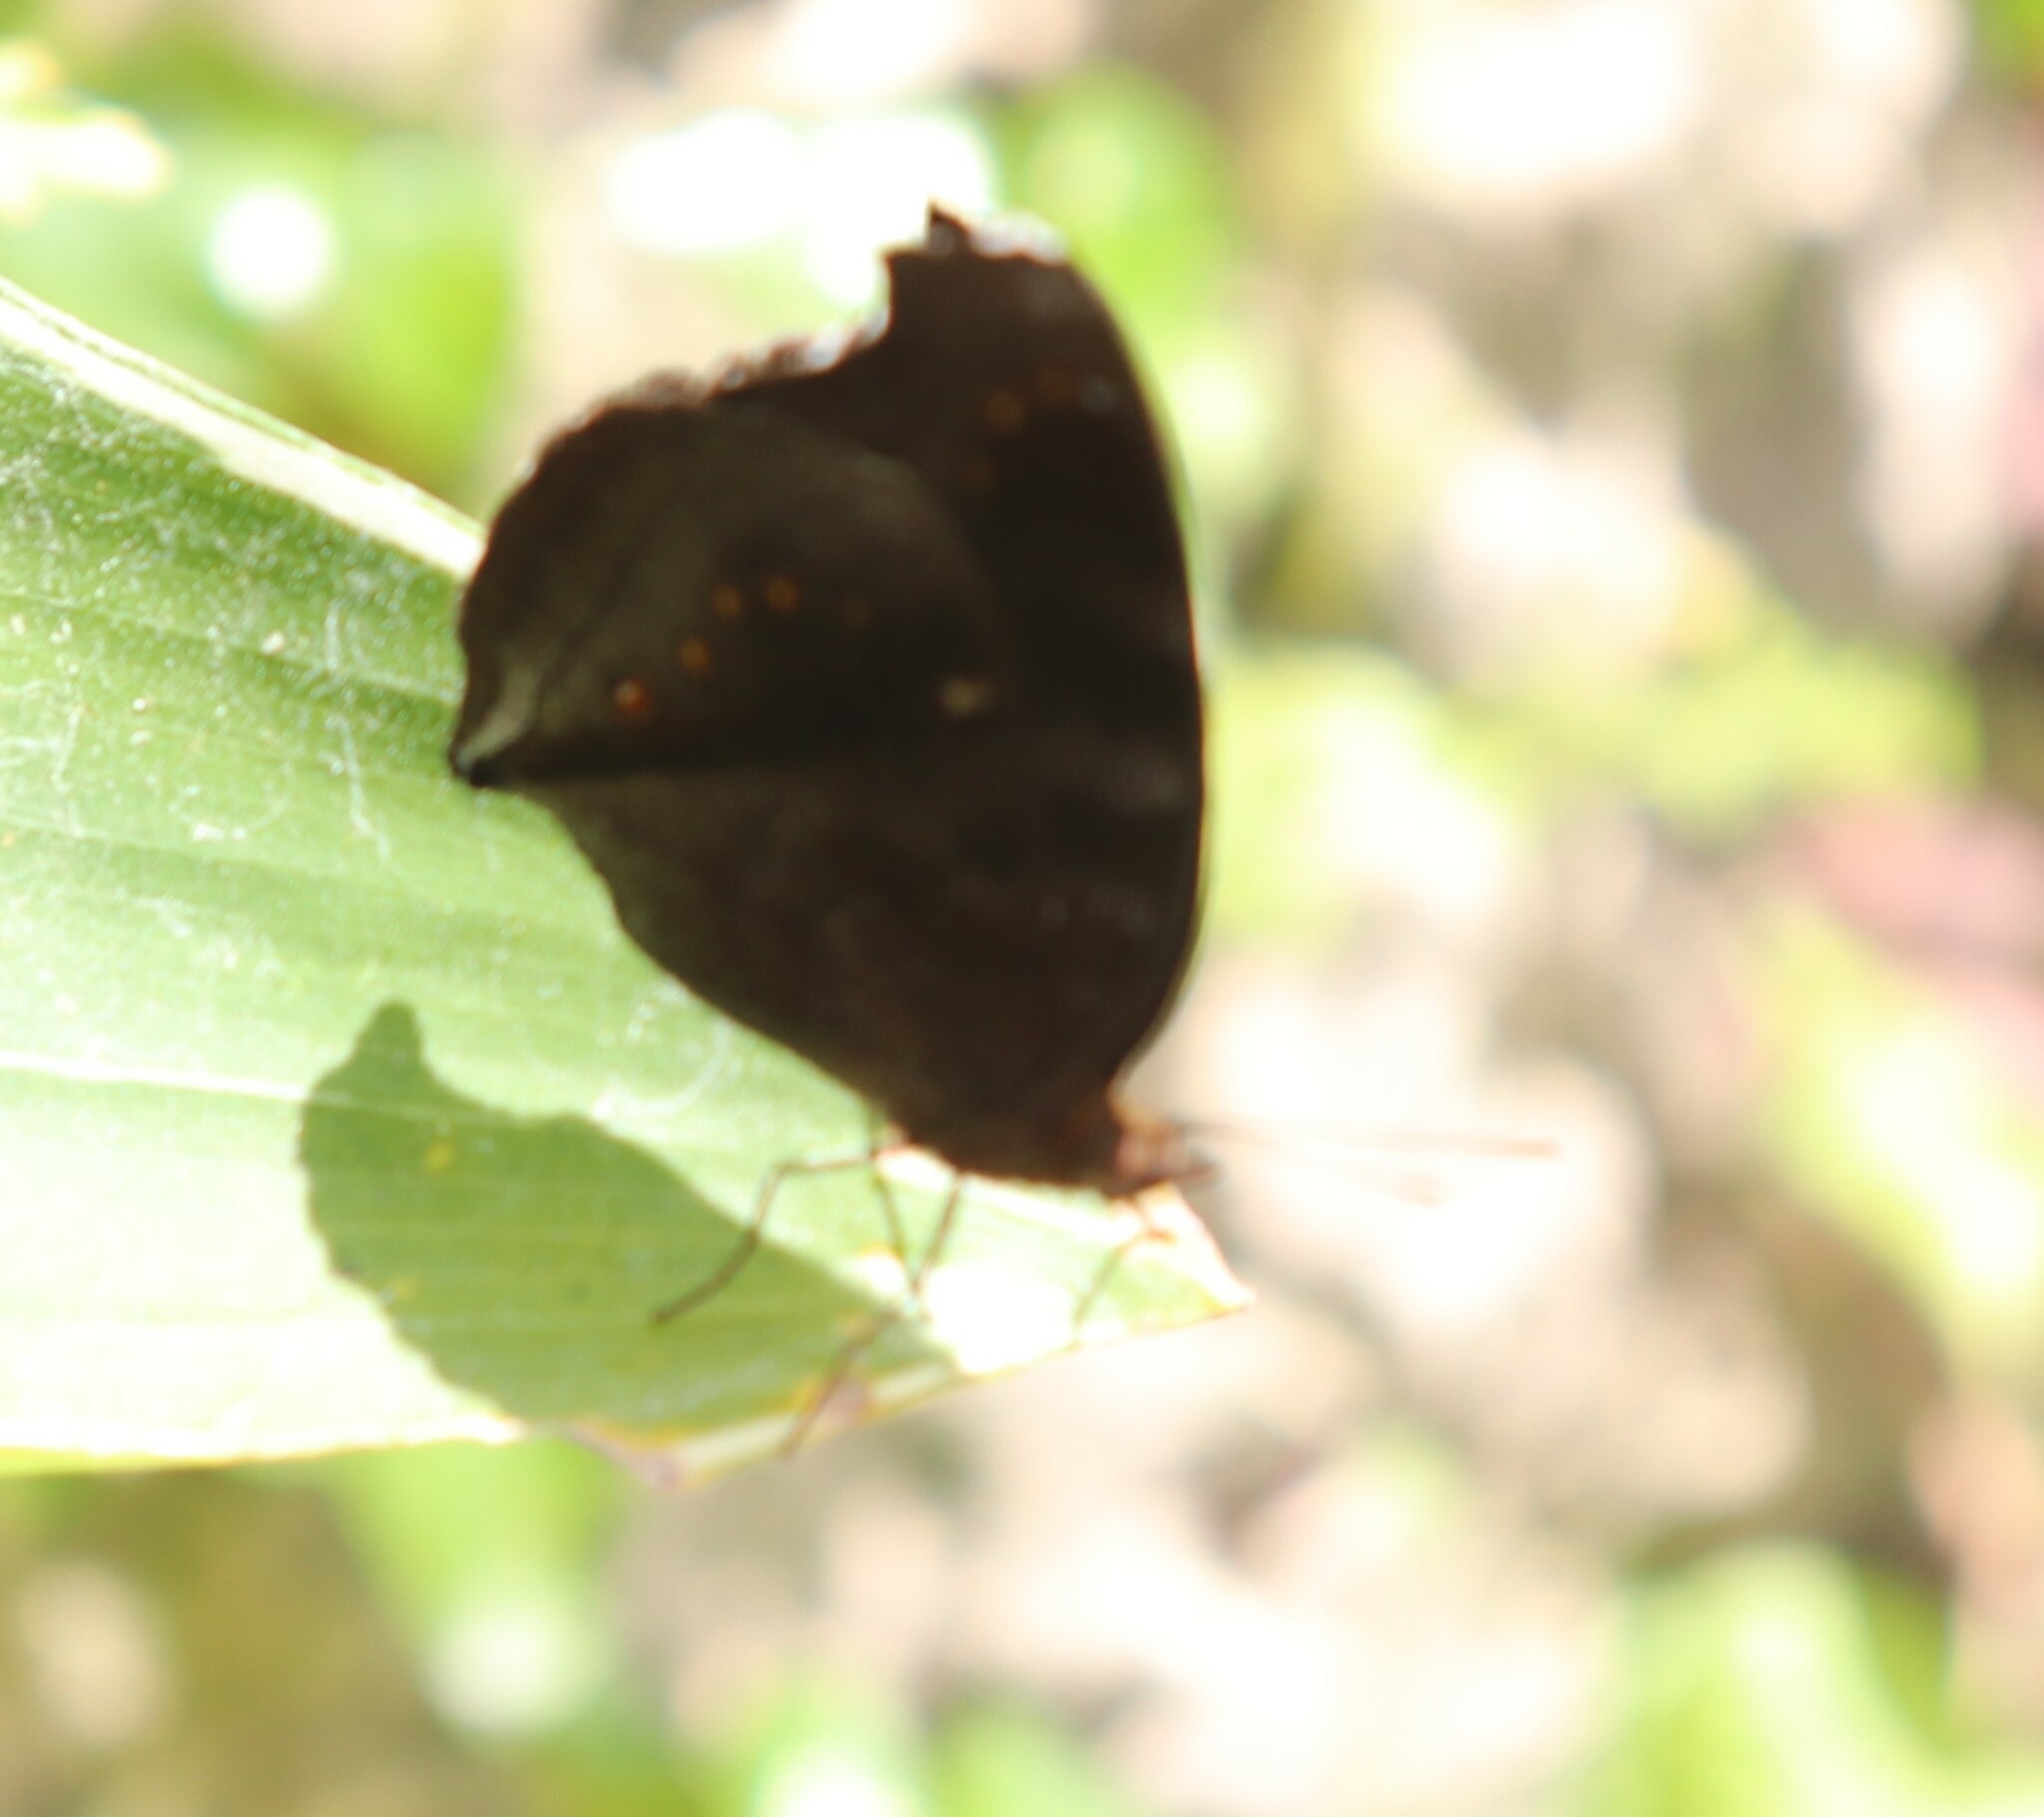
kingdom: Animalia
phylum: Arthropoda
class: Insecta
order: Lepidoptera
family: Nymphalidae
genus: Junonia
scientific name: Junonia hedonia
